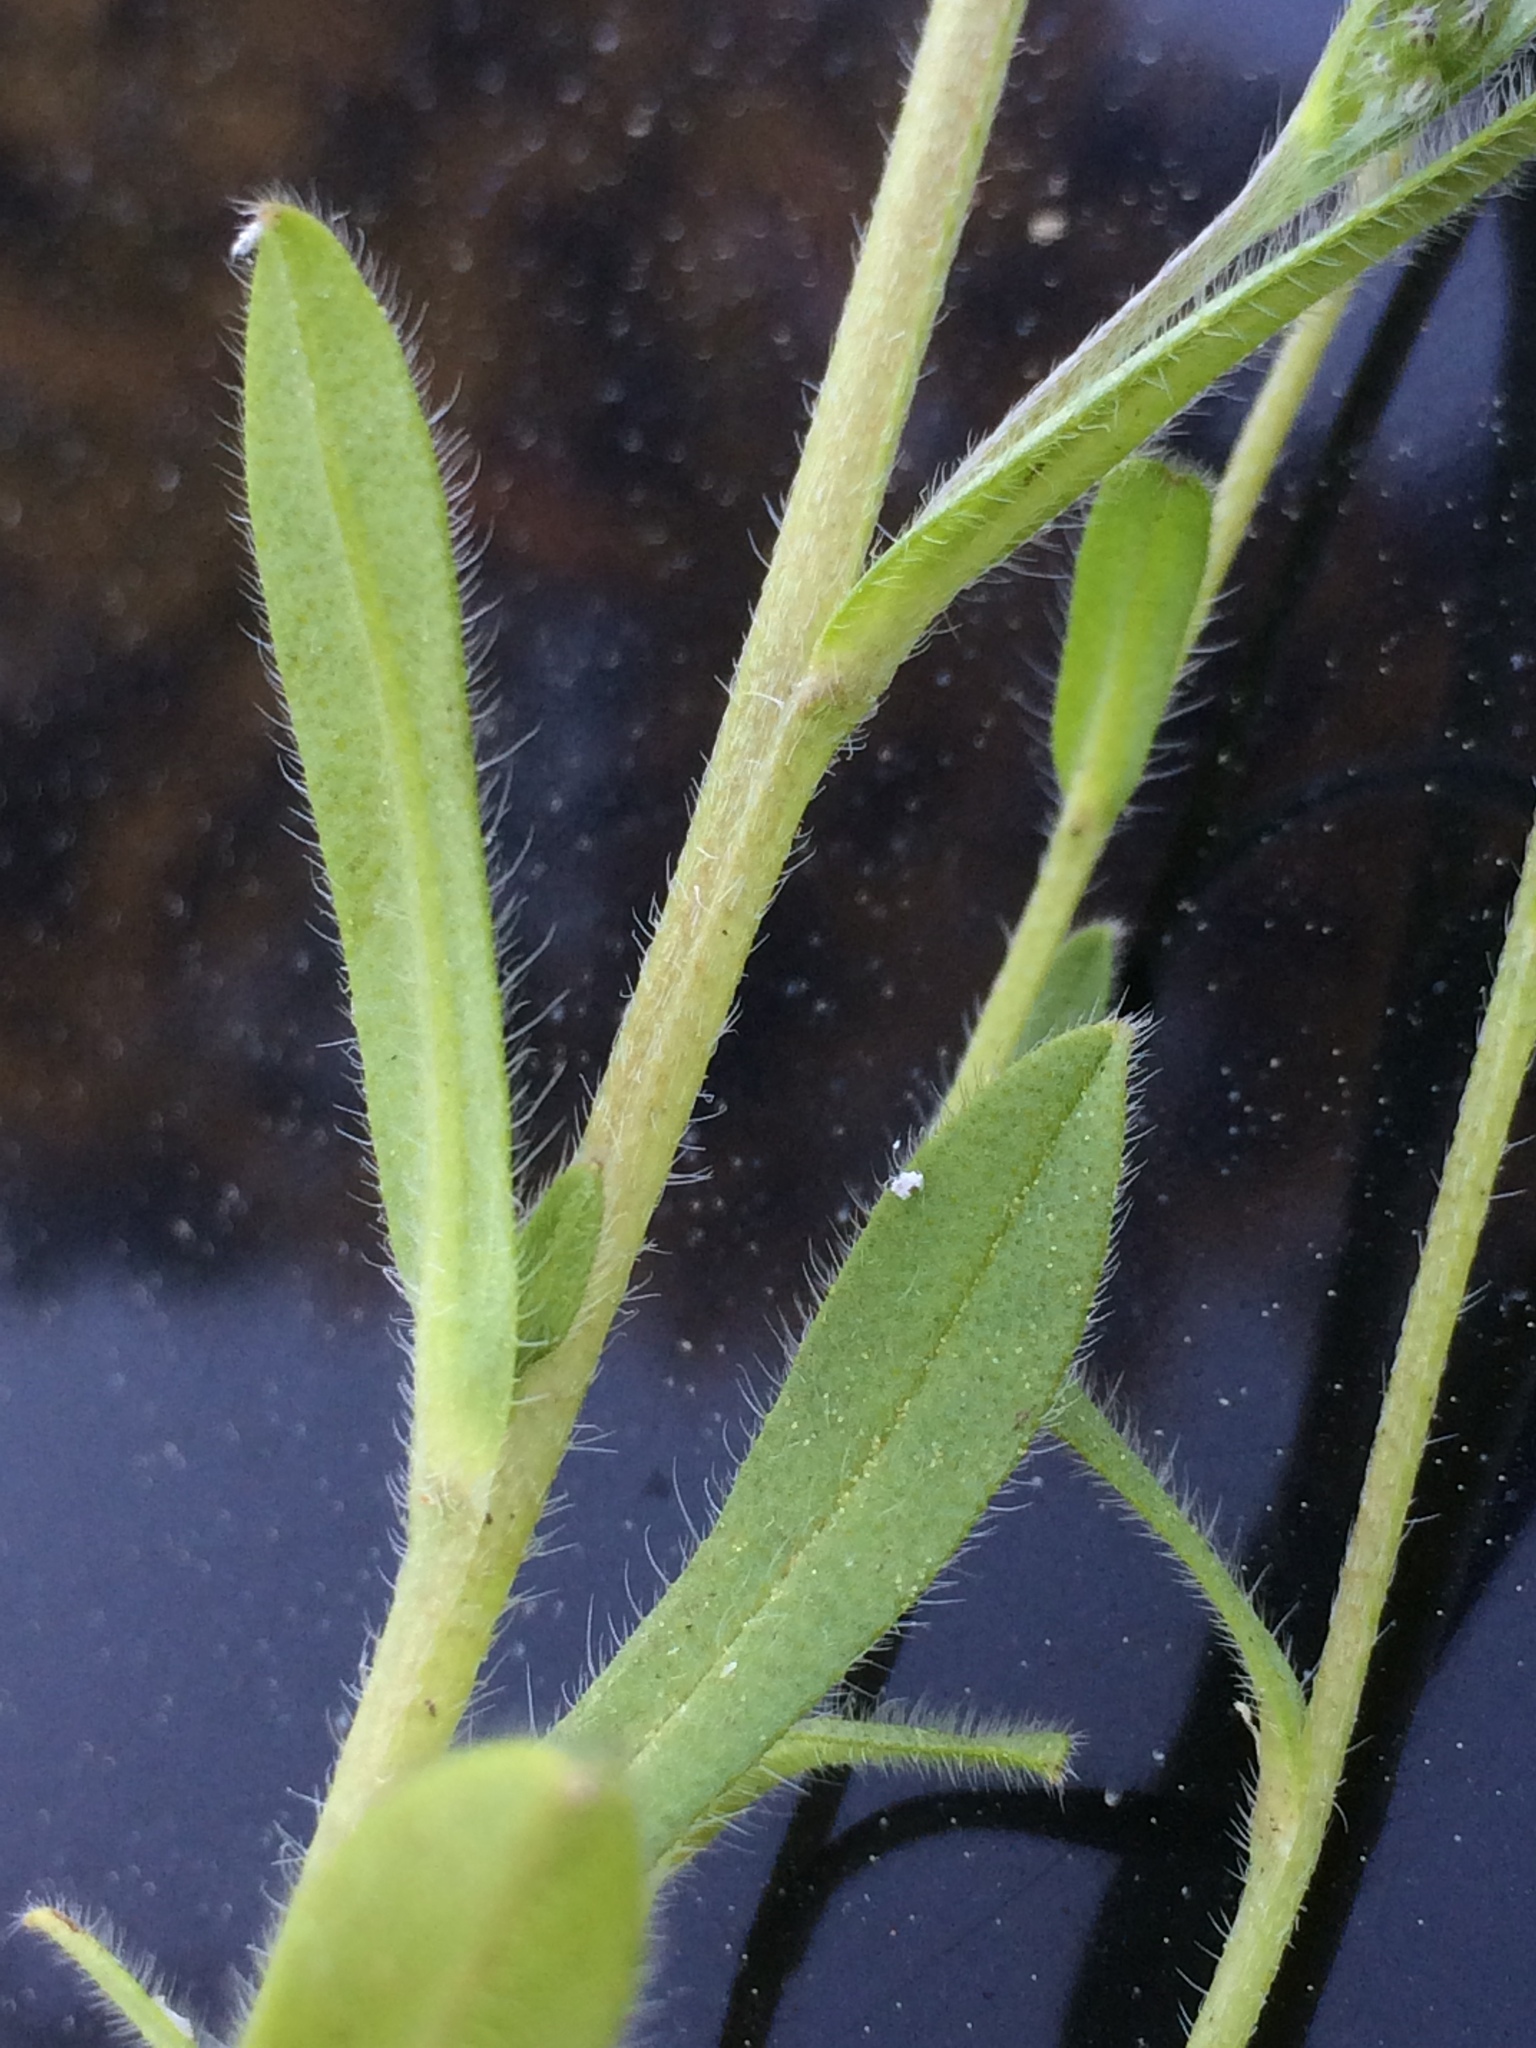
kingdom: Plantae
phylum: Tracheophyta
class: Magnoliopsida
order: Boraginales
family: Boraginaceae
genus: Myosotis
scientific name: Myosotis discolor
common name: Changing forget-me-not
